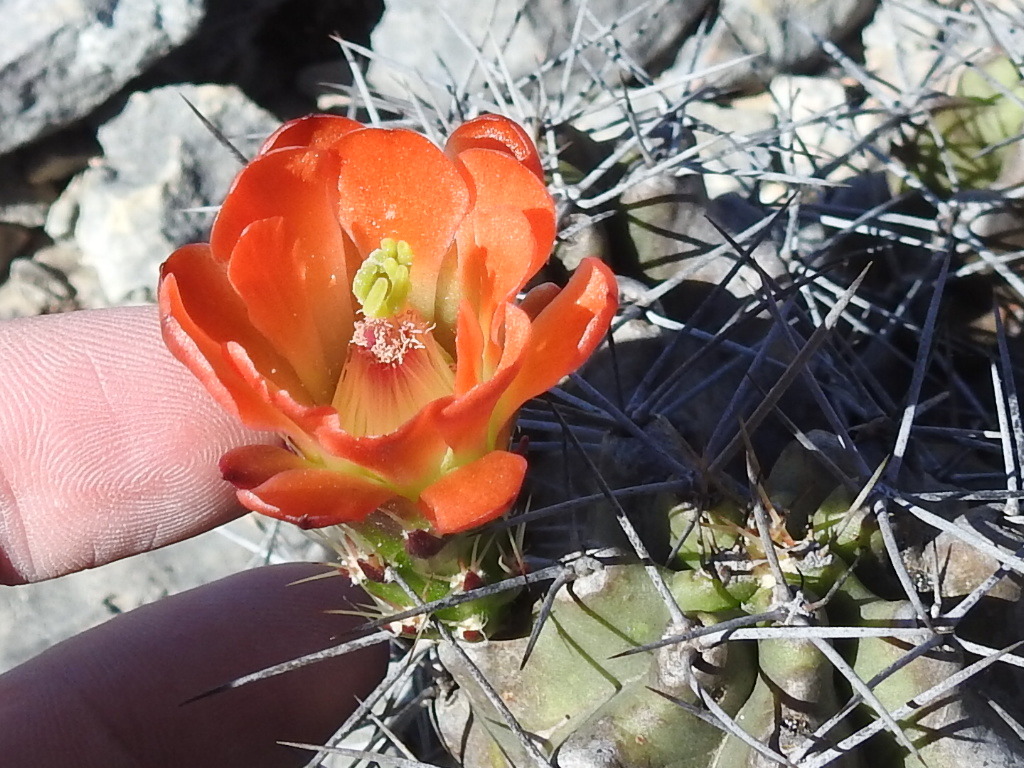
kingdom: Plantae
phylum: Tracheophyta
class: Magnoliopsida
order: Caryophyllales
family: Cactaceae
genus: Echinocereus
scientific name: Echinocereus coccineus
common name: Scarlet hedgehog cactus
